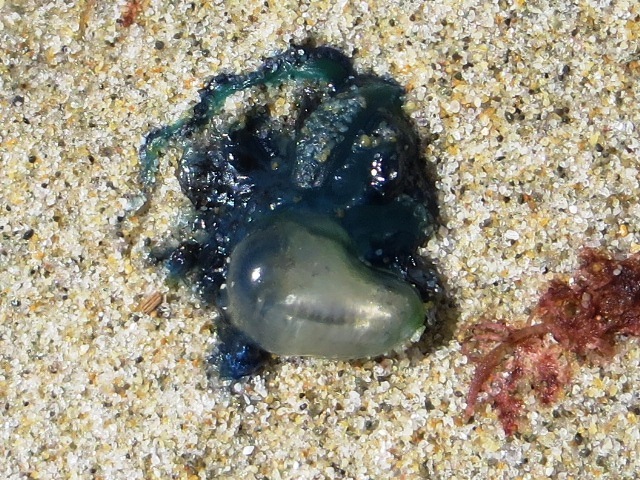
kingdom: Animalia
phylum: Cnidaria
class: Hydrozoa
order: Siphonophorae
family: Physaliidae
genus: Physalia
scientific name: Physalia physalis
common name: Portuguese man-of-war
